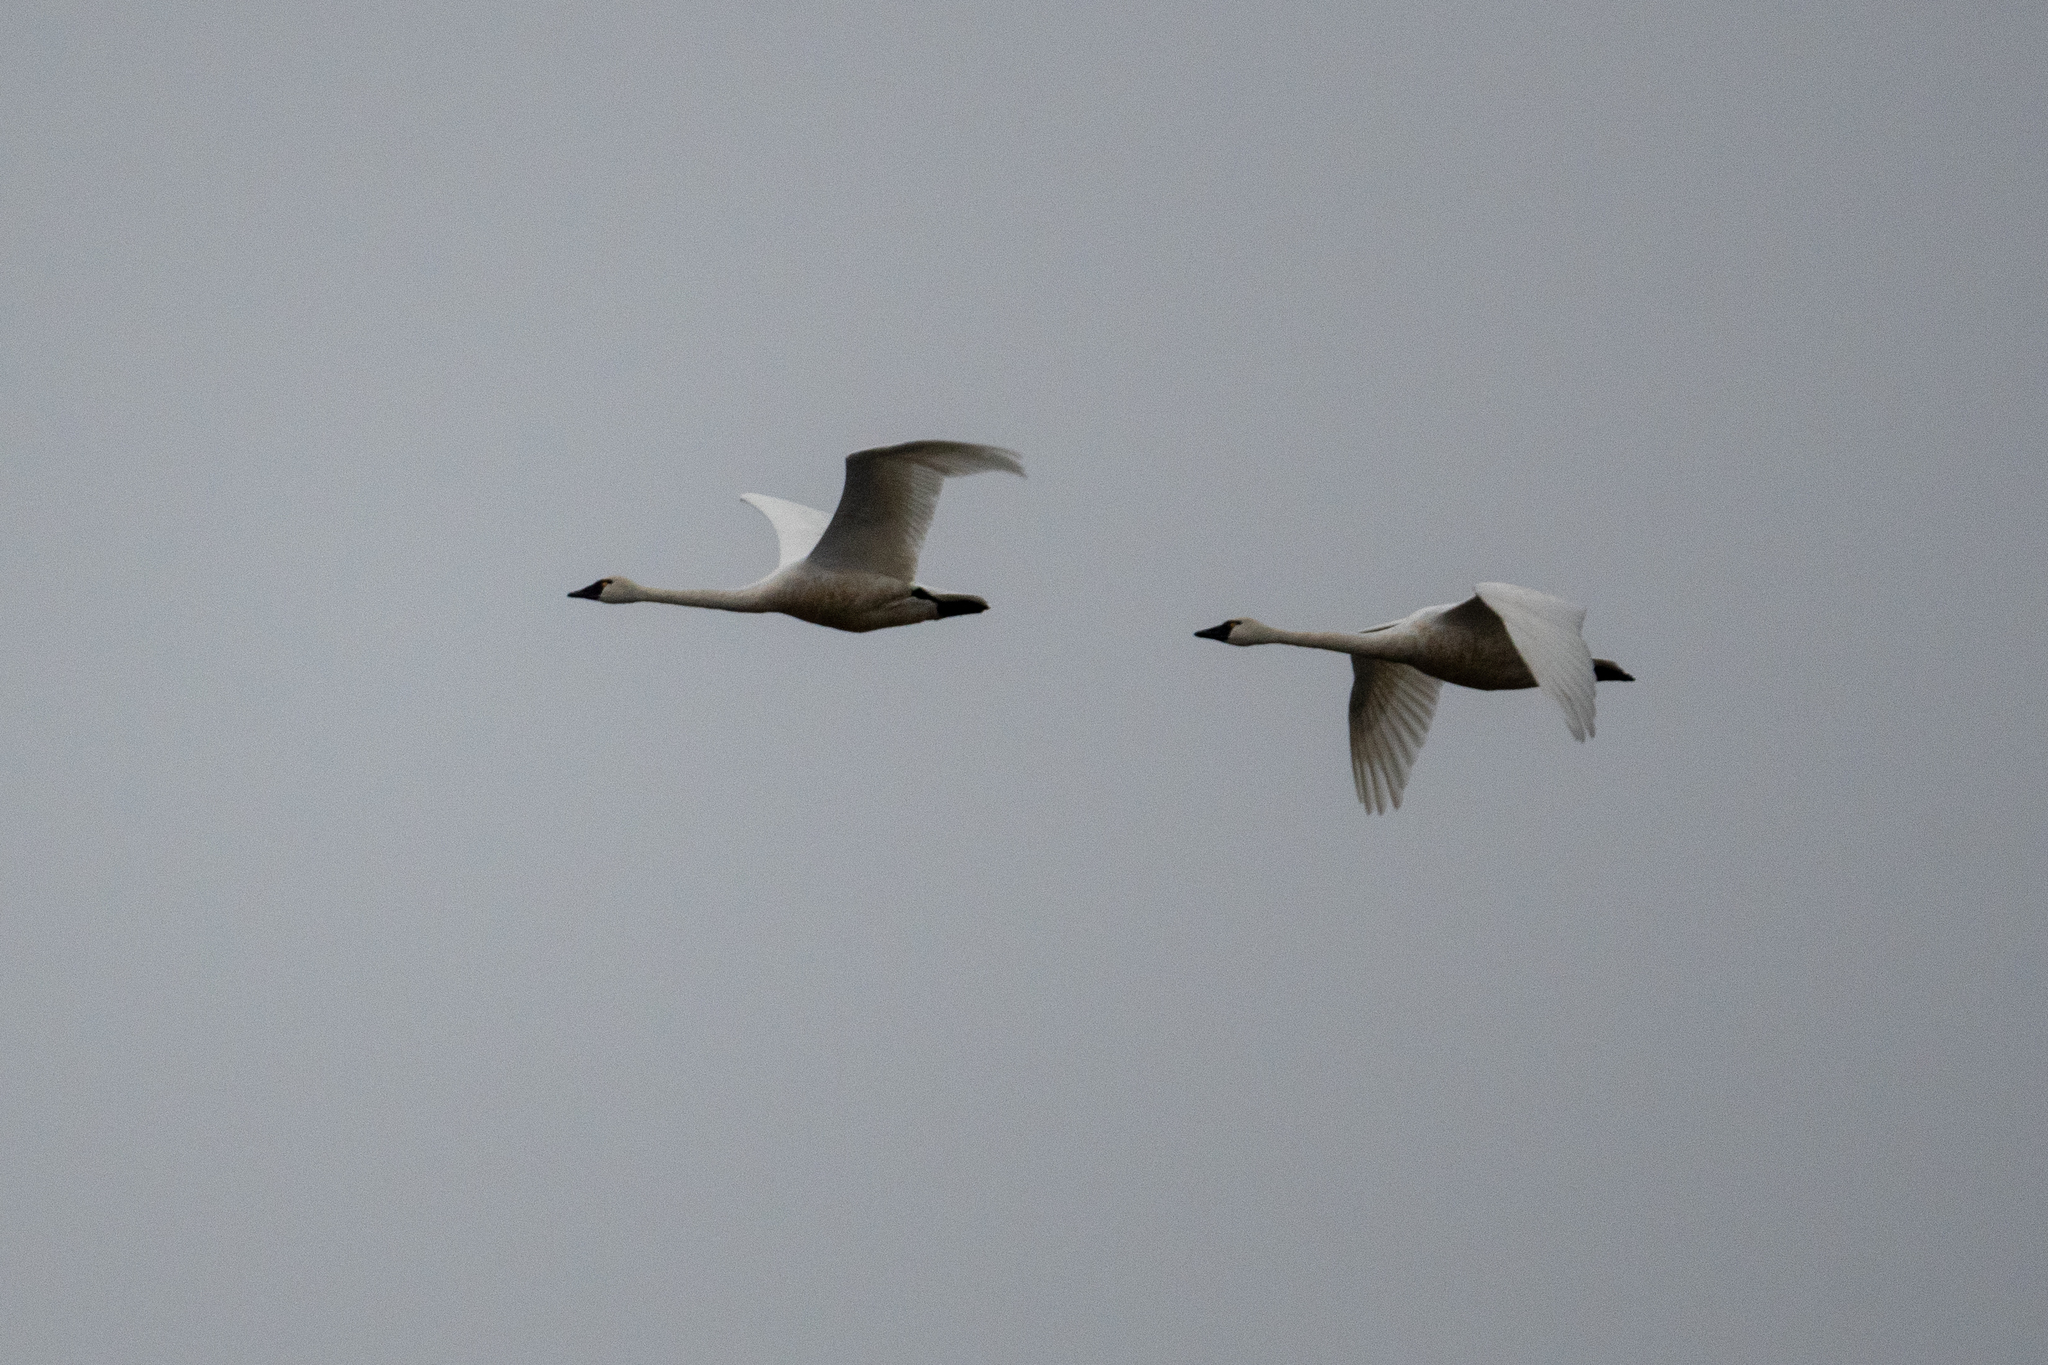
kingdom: Animalia
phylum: Chordata
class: Aves
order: Anseriformes
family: Anatidae
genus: Cygnus
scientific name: Cygnus columbianus
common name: Tundra swan
